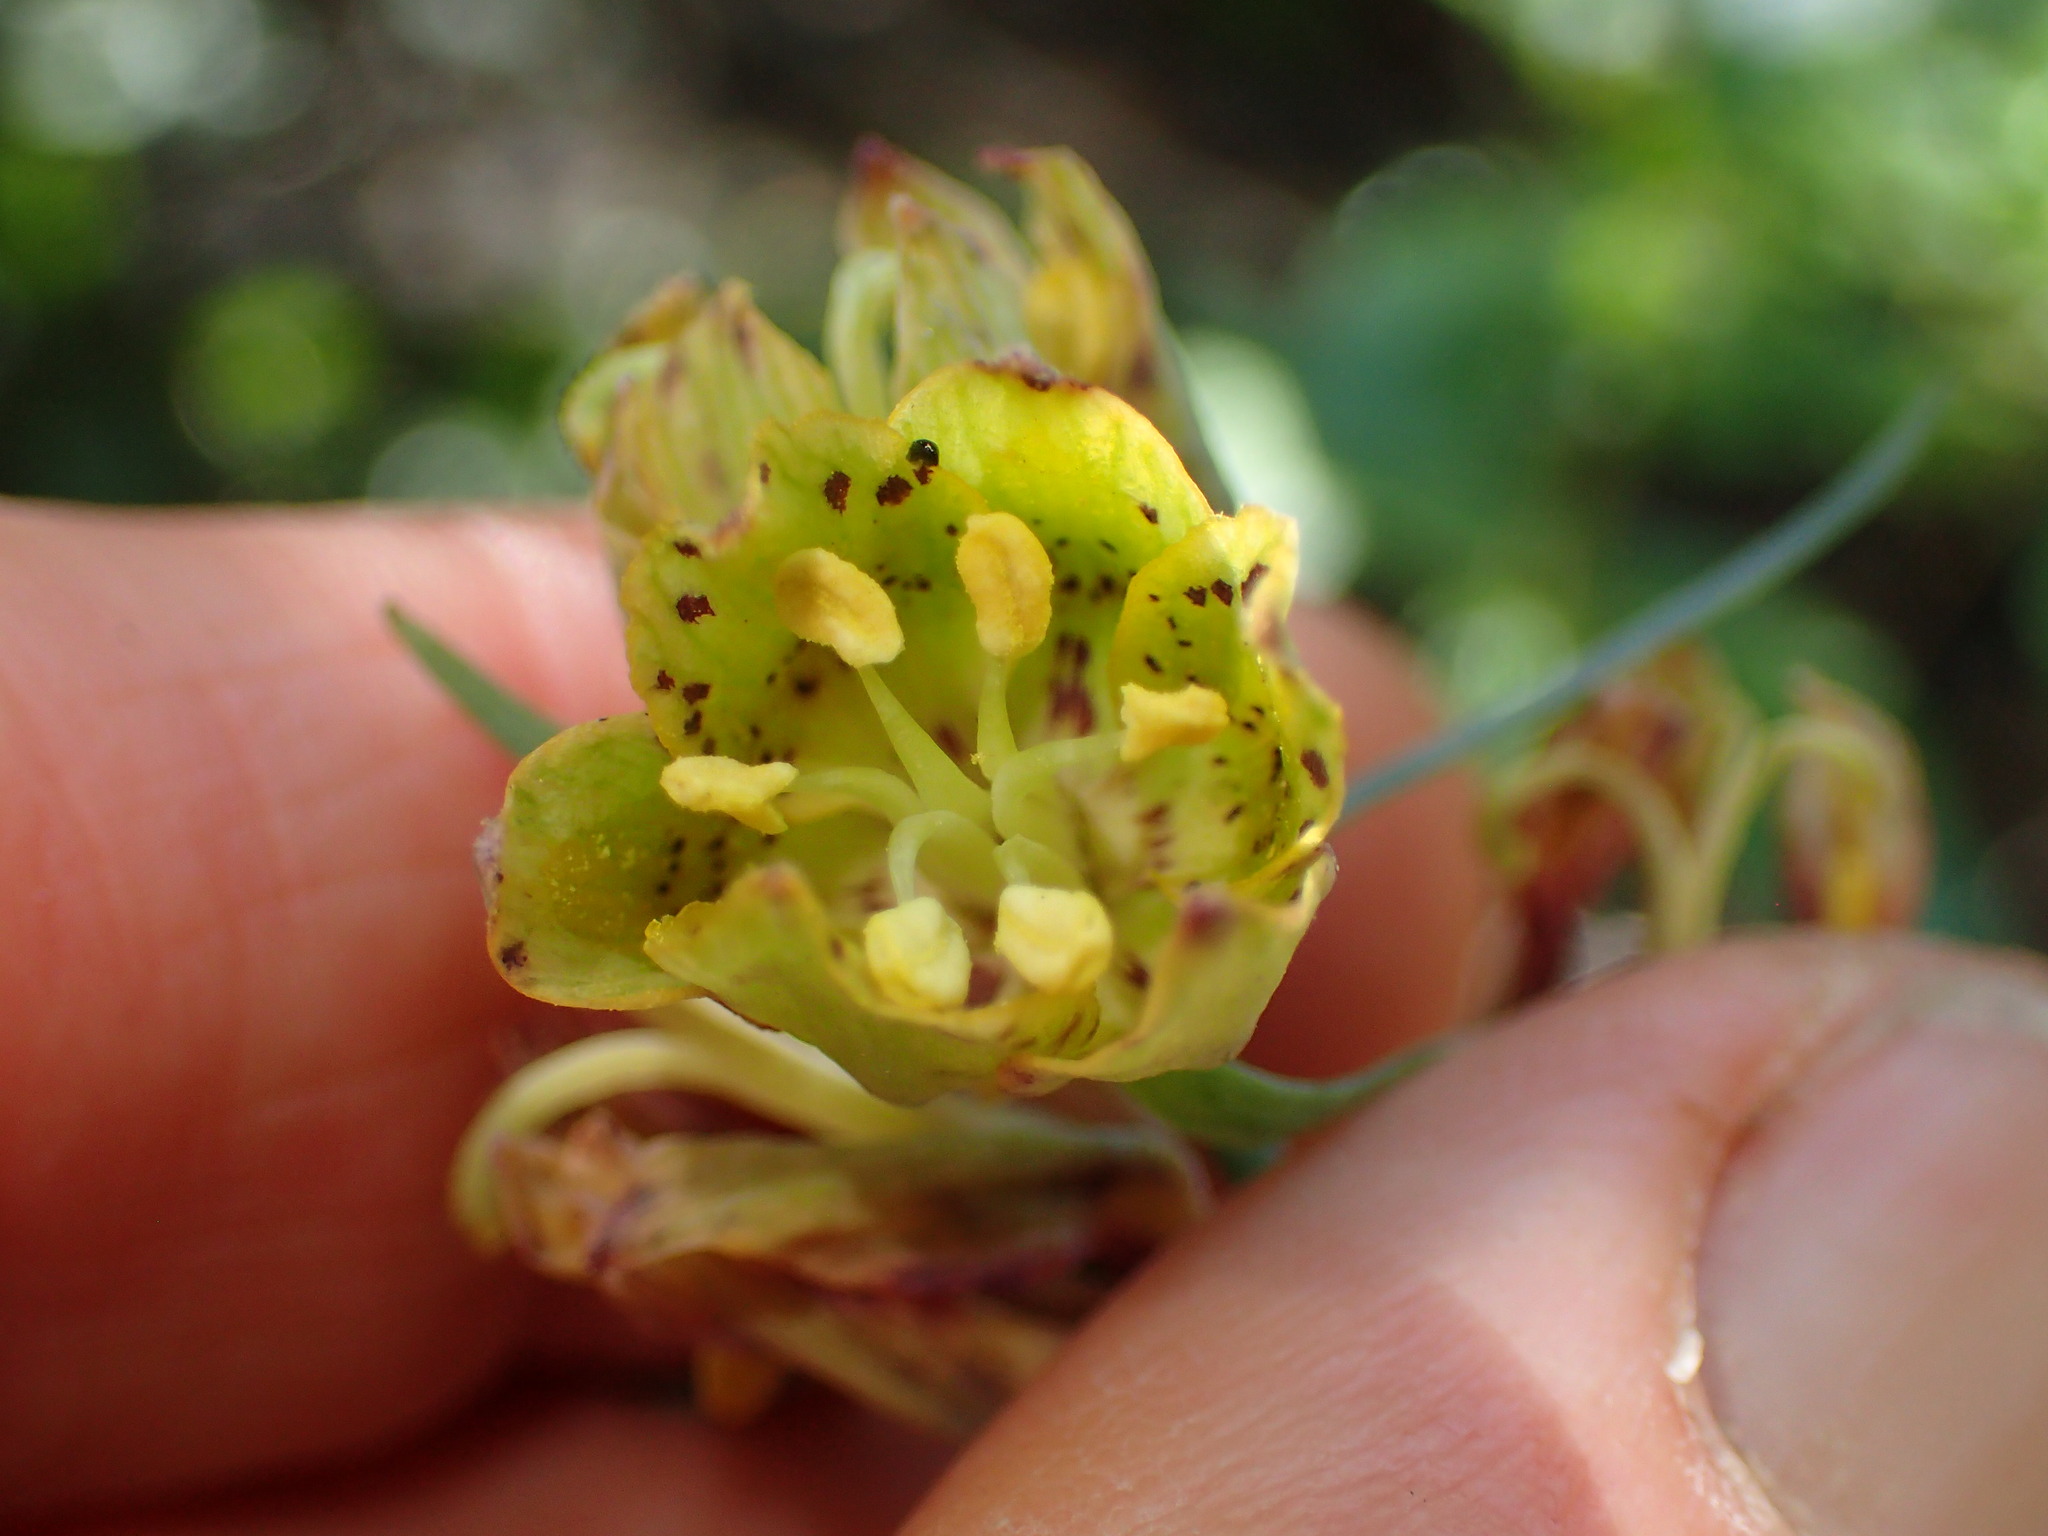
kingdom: Plantae
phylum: Tracheophyta
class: Liliopsida
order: Liliales
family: Liliaceae
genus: Fritillaria
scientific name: Fritillaria ojaiensis
